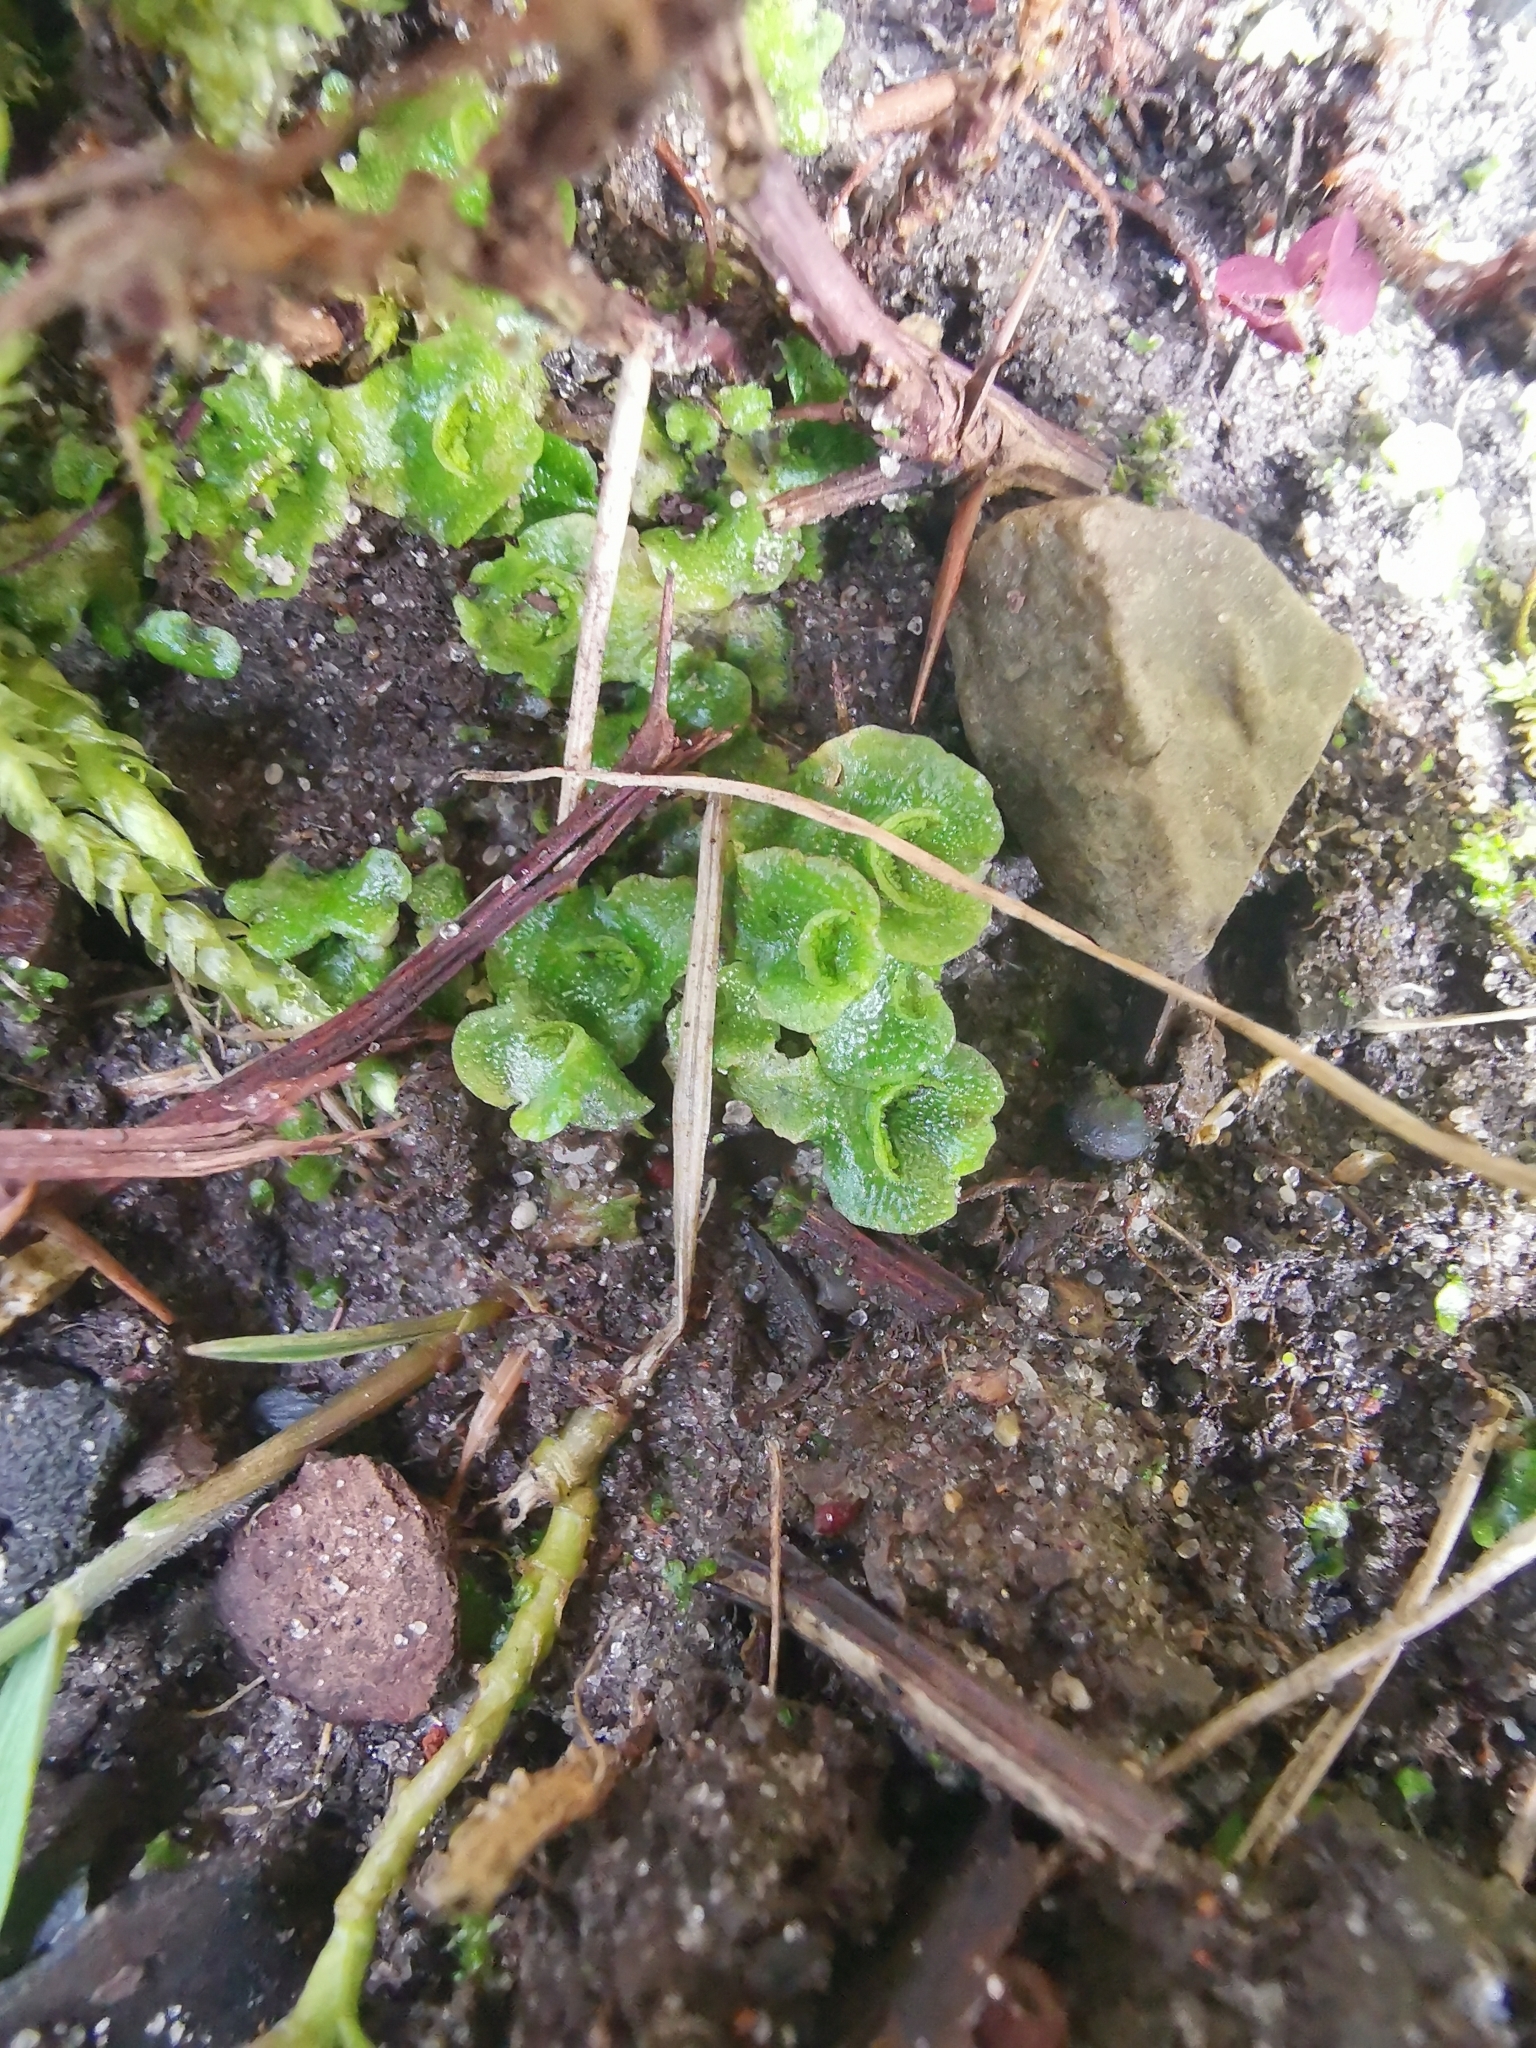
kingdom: Plantae
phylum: Marchantiophyta
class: Marchantiopsida
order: Lunulariales
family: Lunulariaceae
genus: Lunularia
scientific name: Lunularia cruciata
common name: Crescent-cup liverwort
